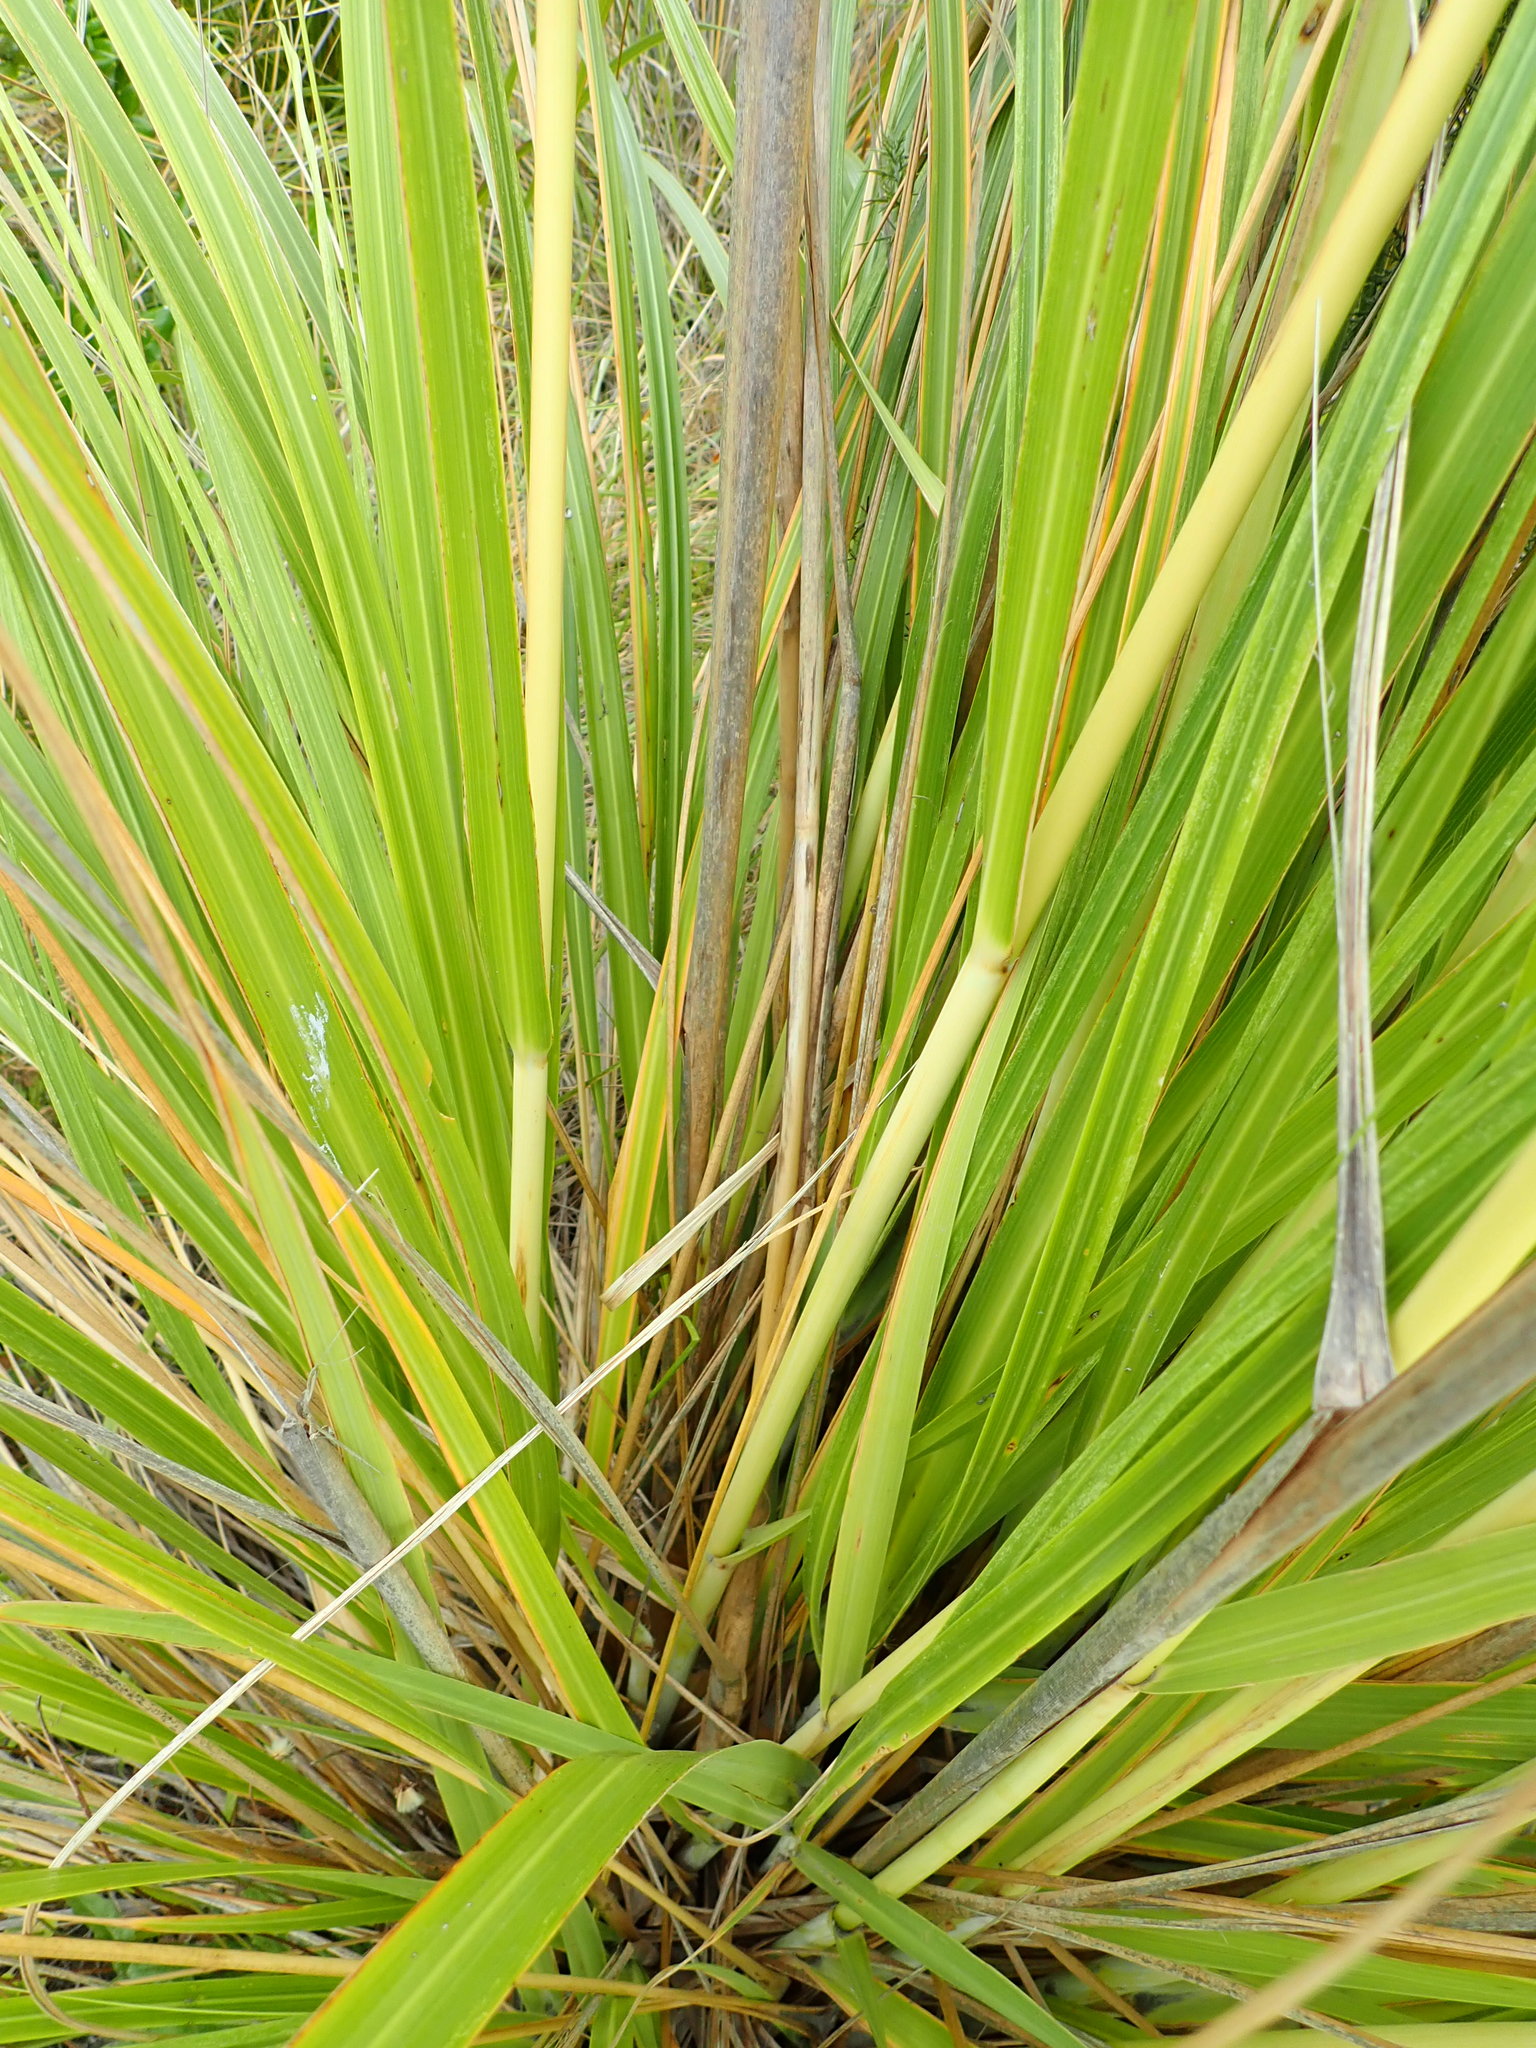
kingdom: Plantae
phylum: Tracheophyta
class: Liliopsida
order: Poales
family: Poaceae
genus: Austroderia
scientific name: Austroderia toetoe
